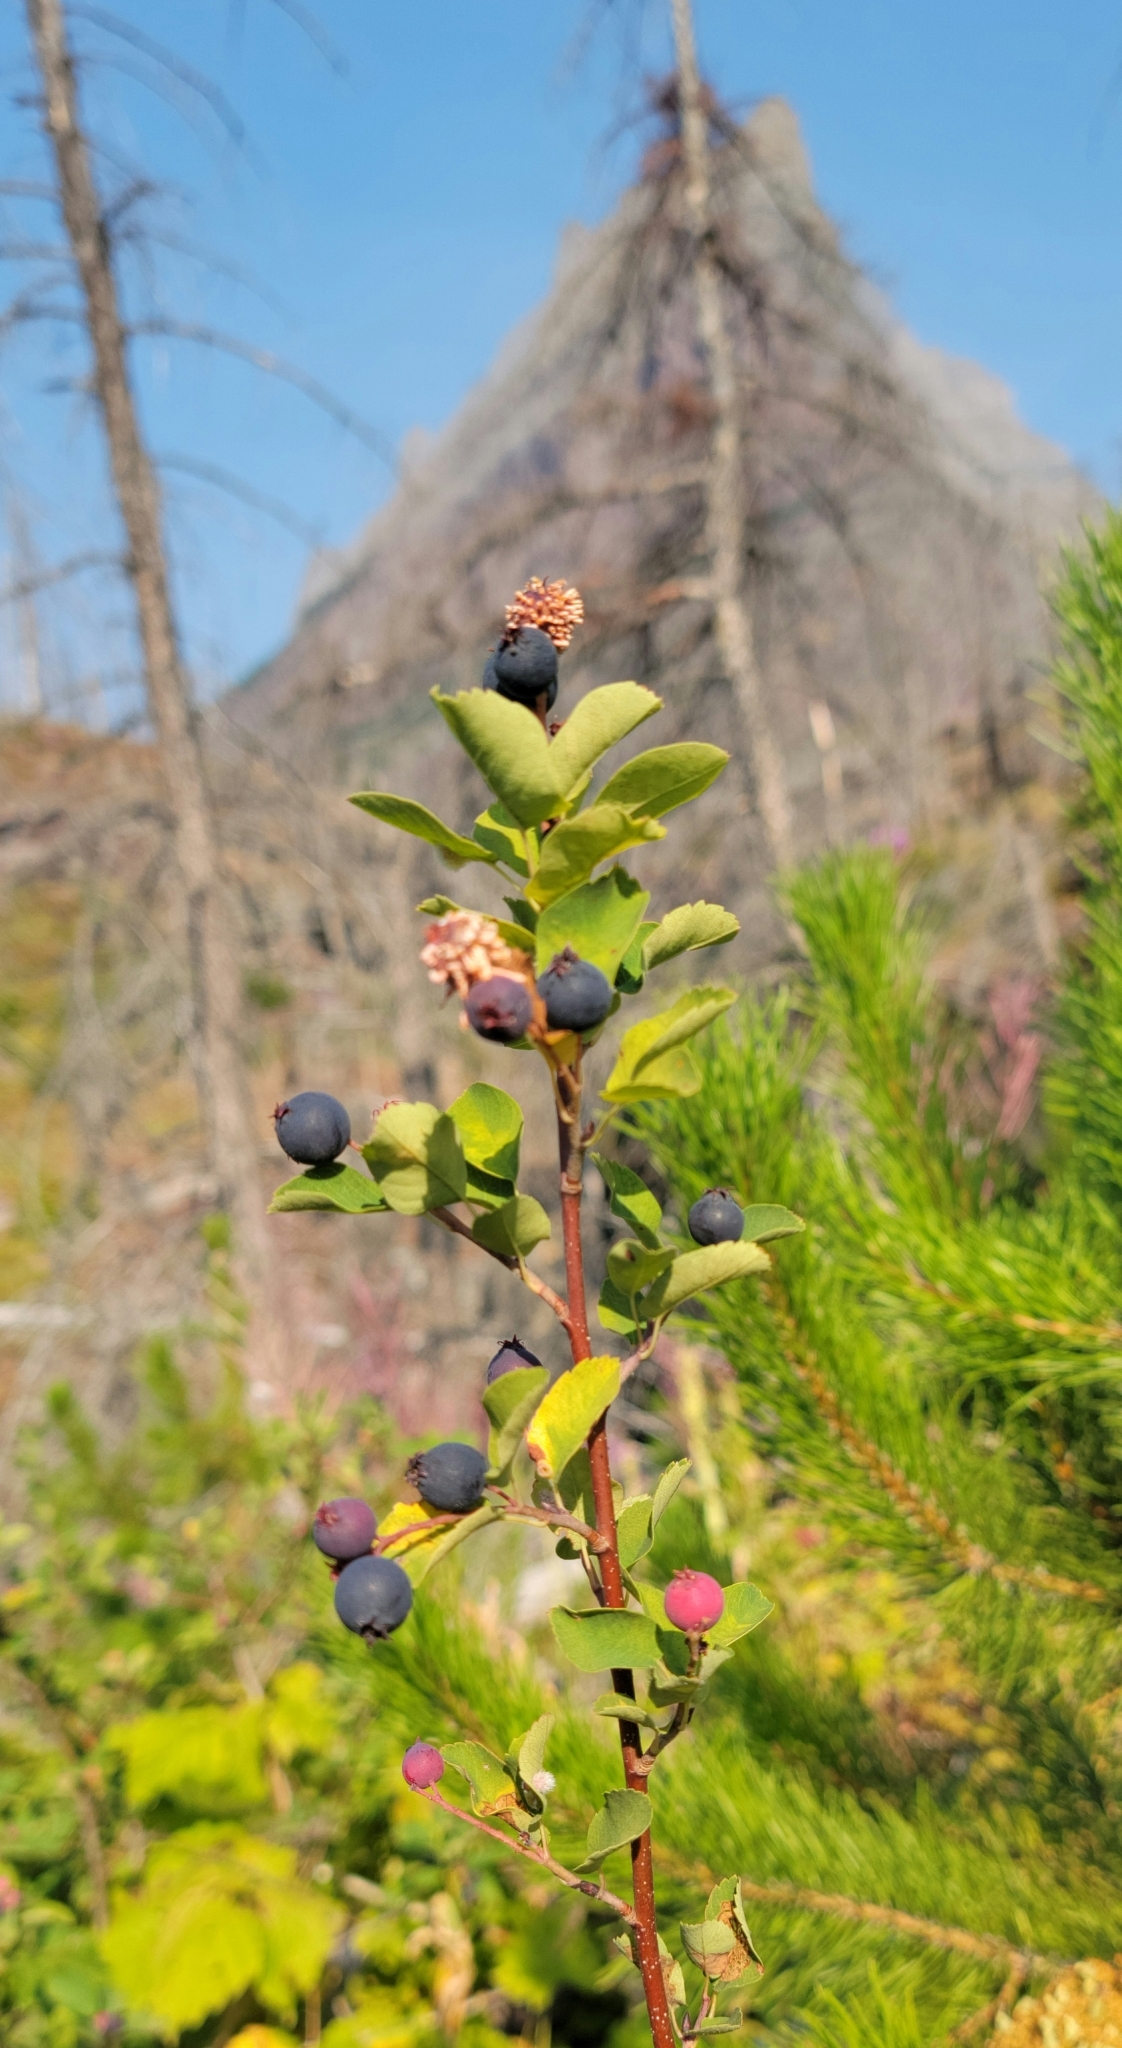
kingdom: Plantae
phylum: Tracheophyta
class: Magnoliopsida
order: Rosales
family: Rosaceae
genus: Amelanchier
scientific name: Amelanchier alnifolia
